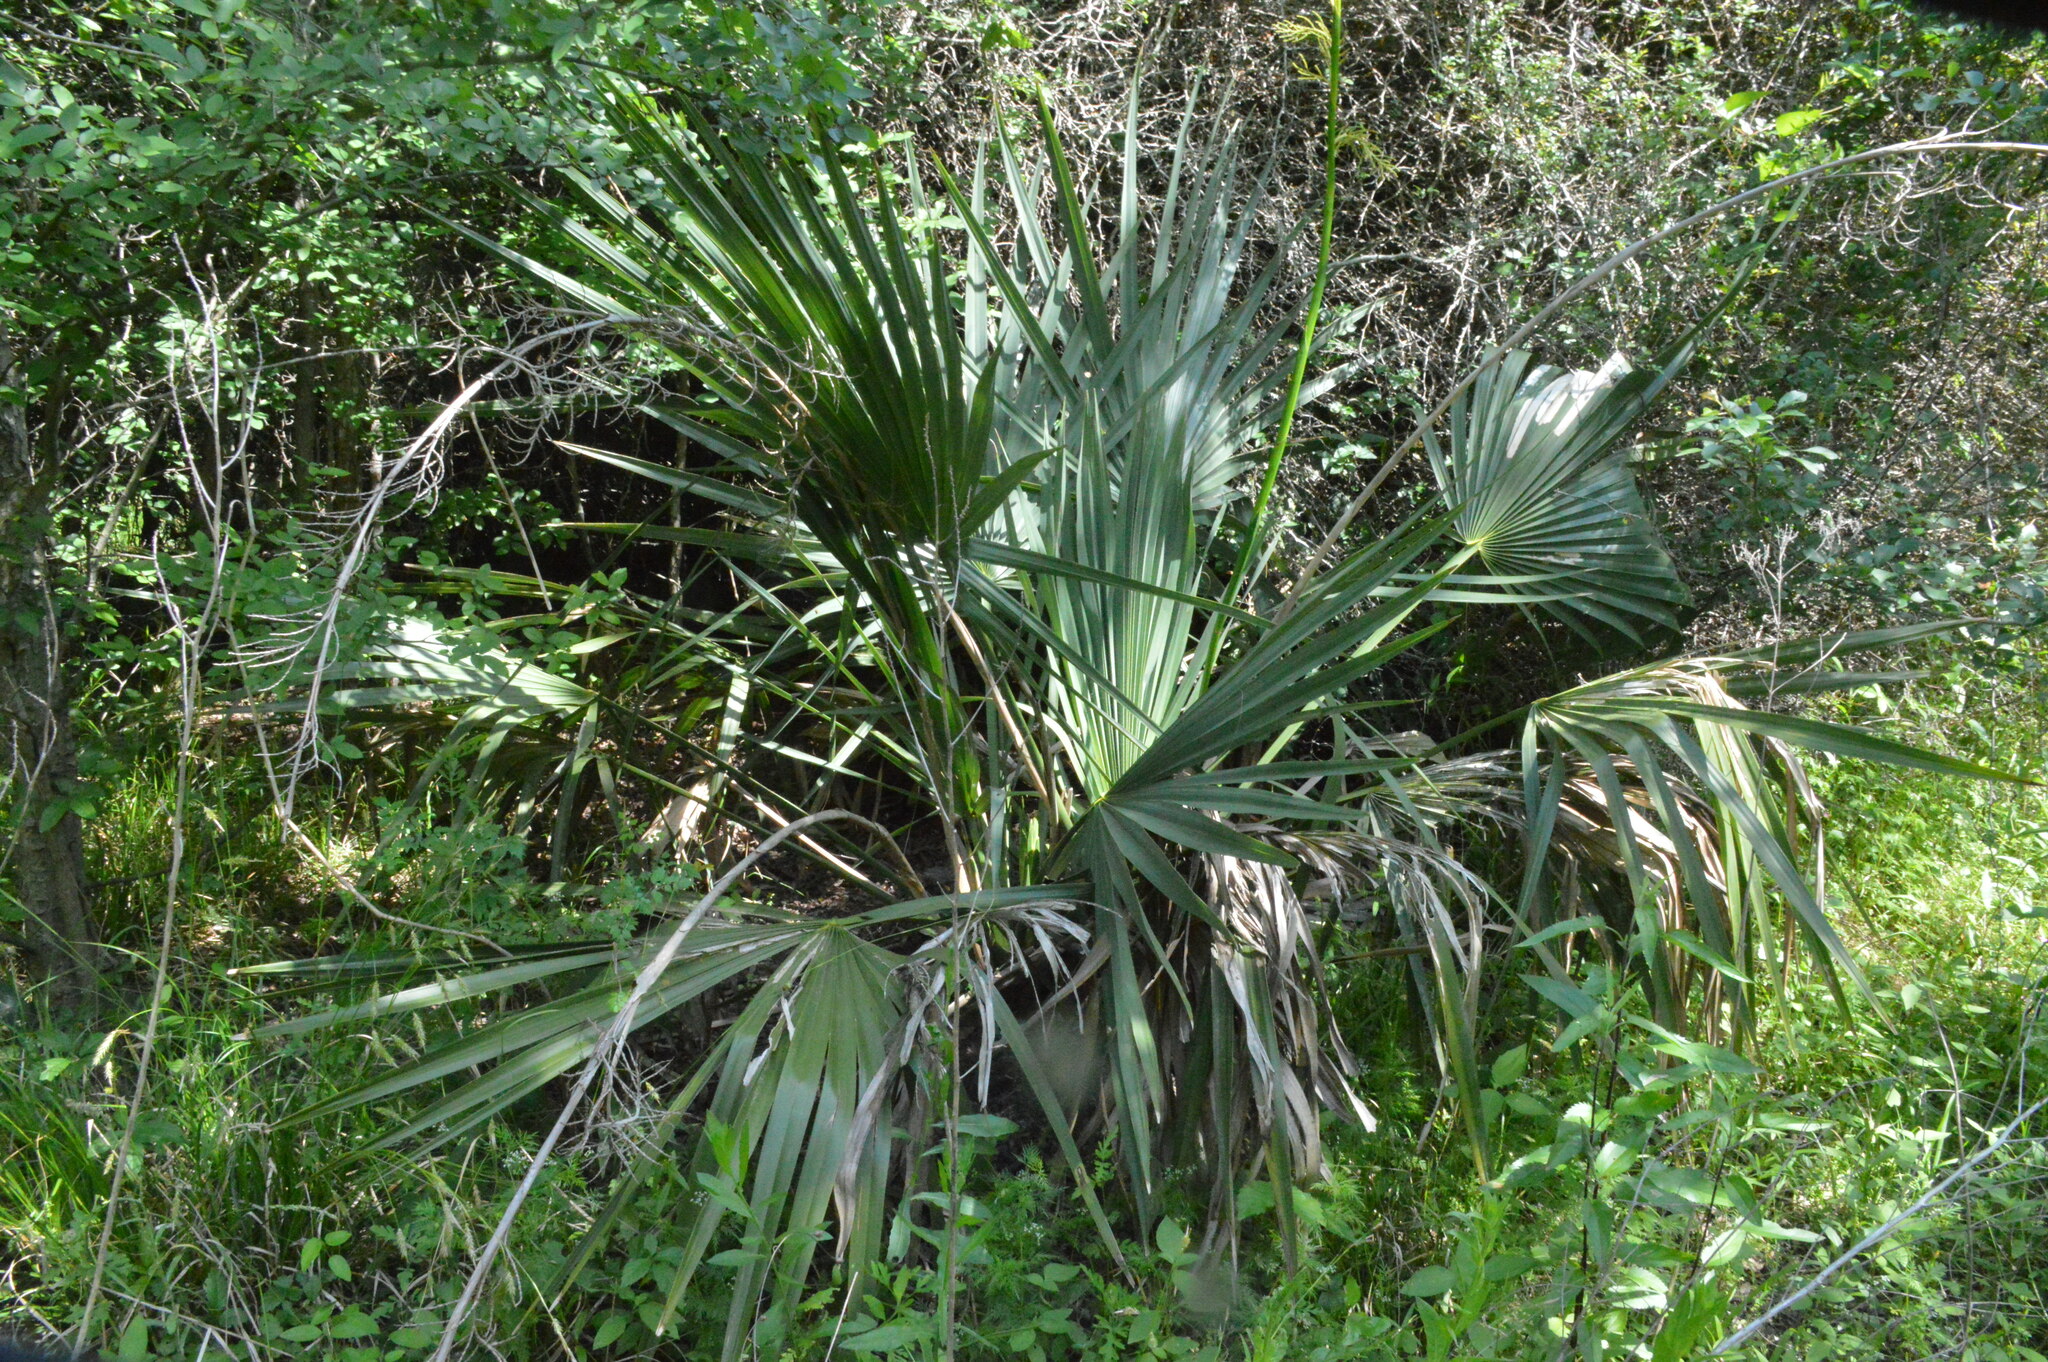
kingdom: Plantae
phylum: Tracheophyta
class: Liliopsida
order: Arecales
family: Arecaceae
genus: Sabal
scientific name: Sabal minor
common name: Dwarf palmetto
